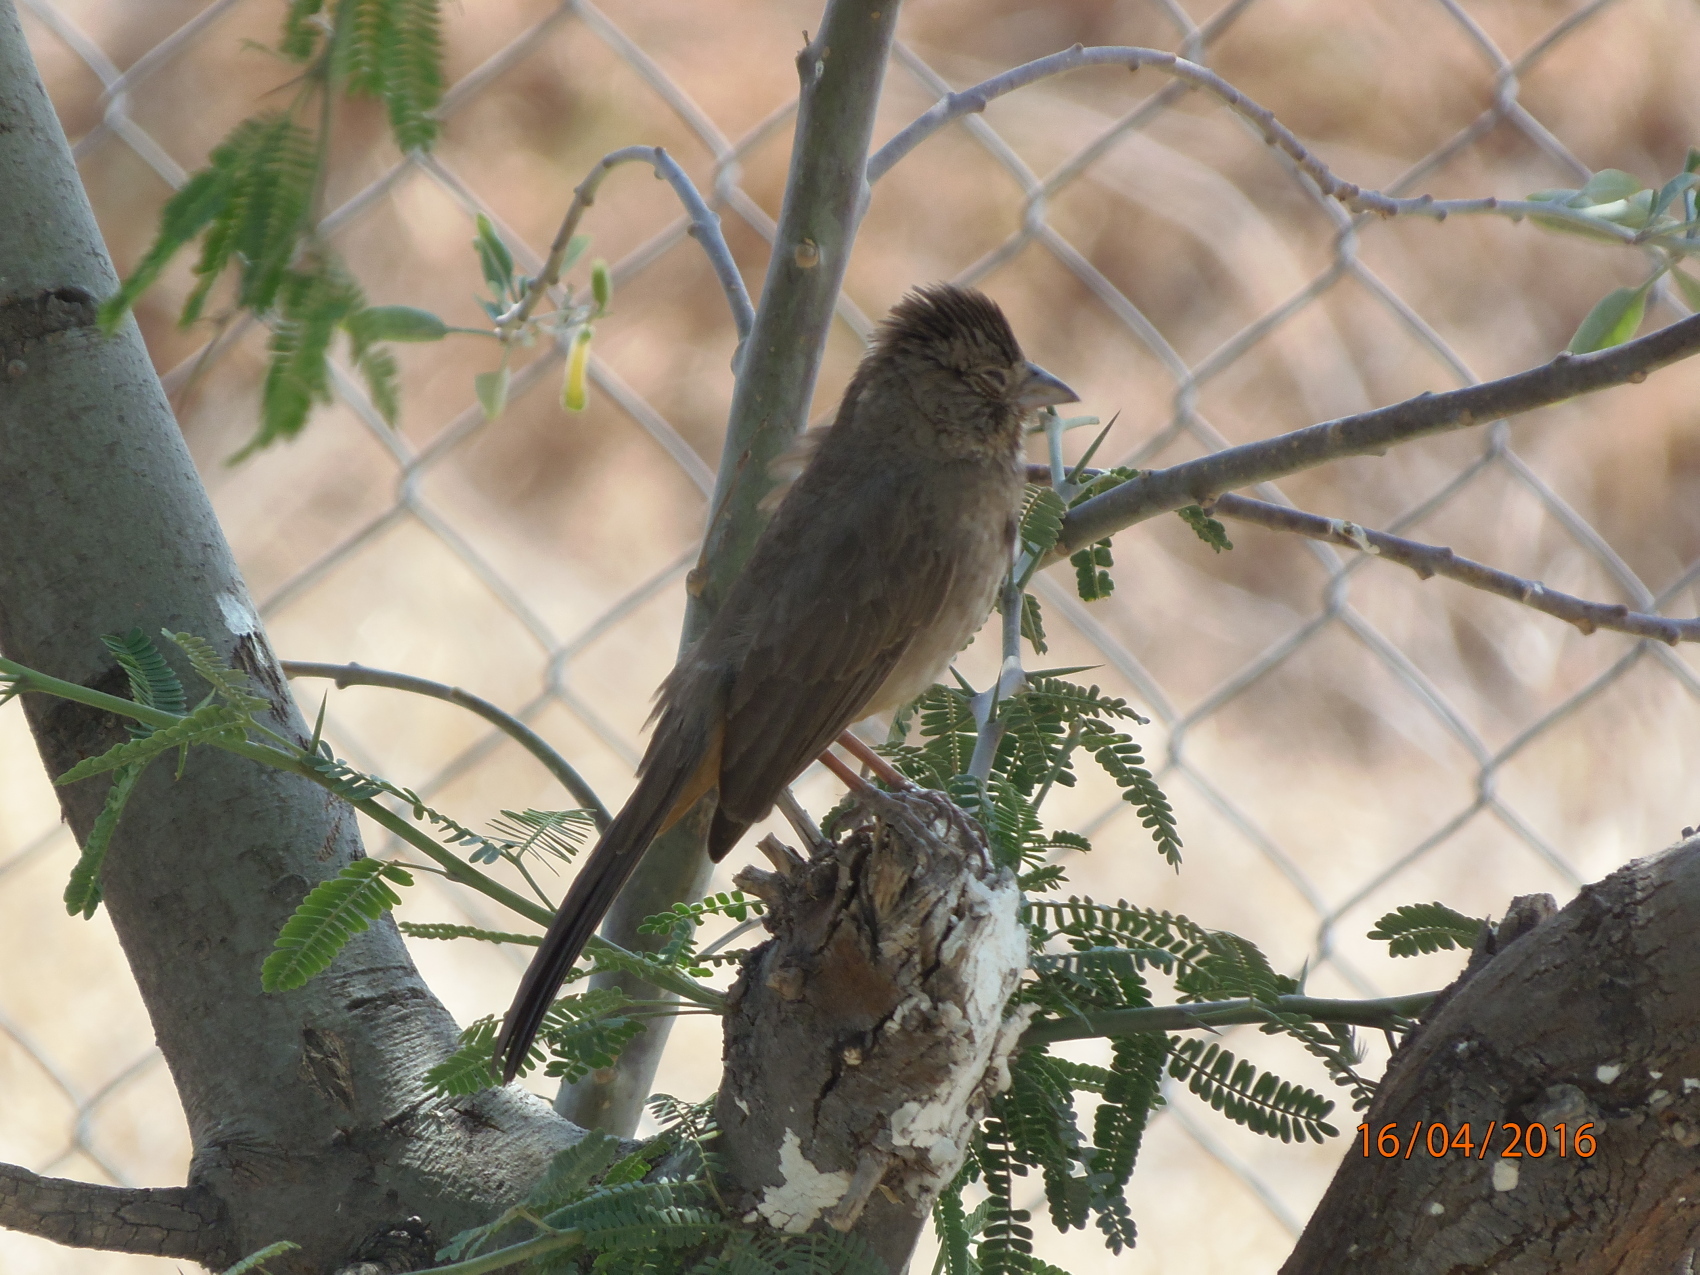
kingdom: Animalia
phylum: Chordata
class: Aves
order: Passeriformes
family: Passerellidae
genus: Melozone
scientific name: Melozone fusca
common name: Canyon towhee
